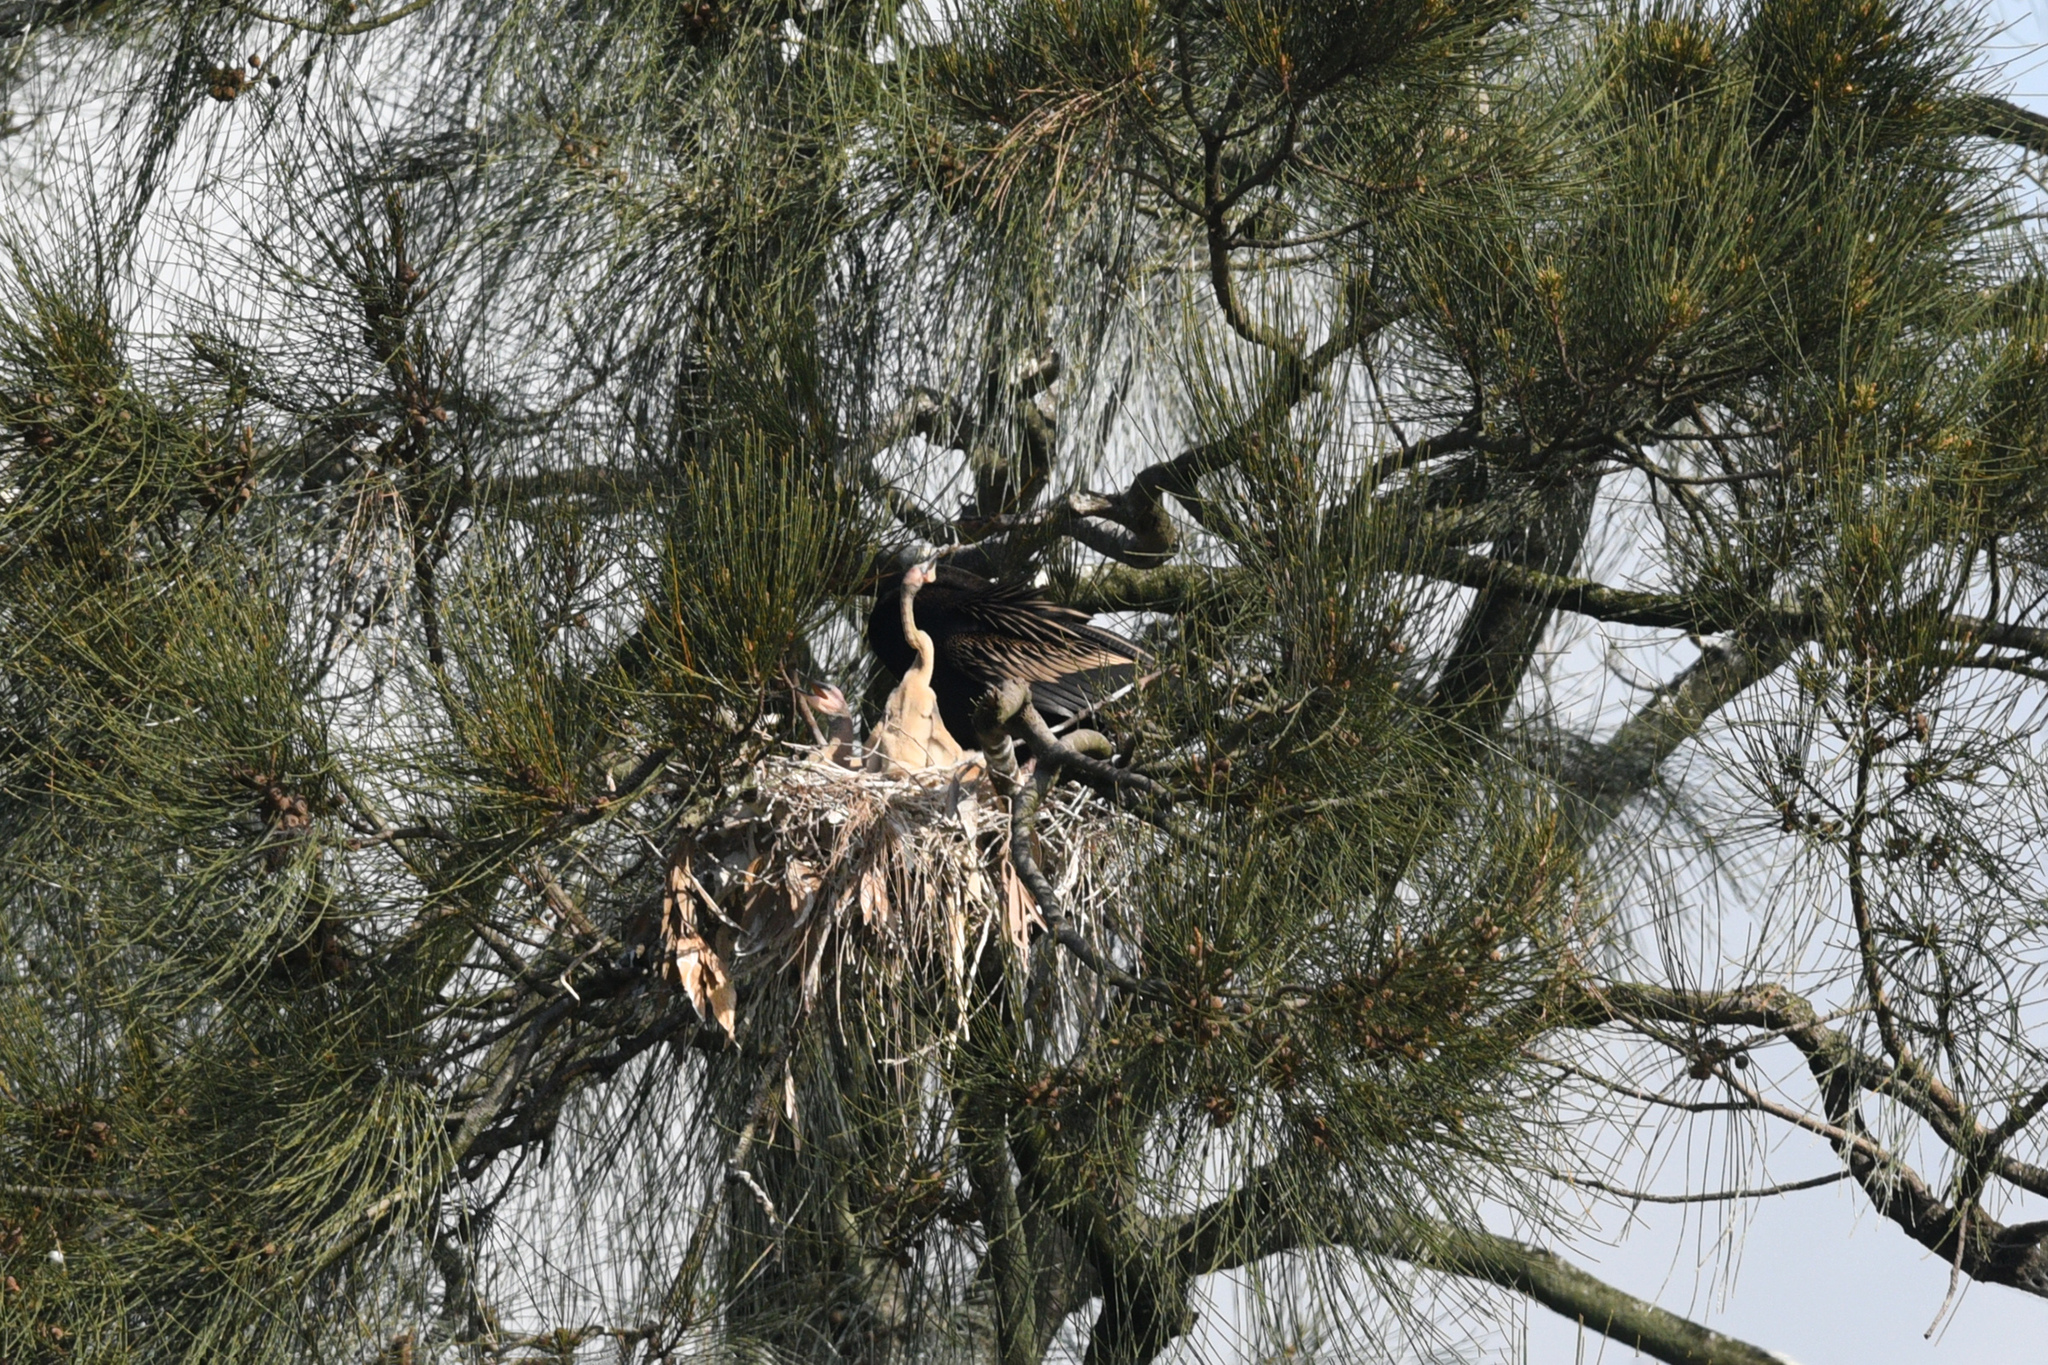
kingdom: Animalia
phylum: Chordata
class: Aves
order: Suliformes
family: Anhingidae
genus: Anhinga
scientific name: Anhinga novaehollandiae
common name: Australasian darter
